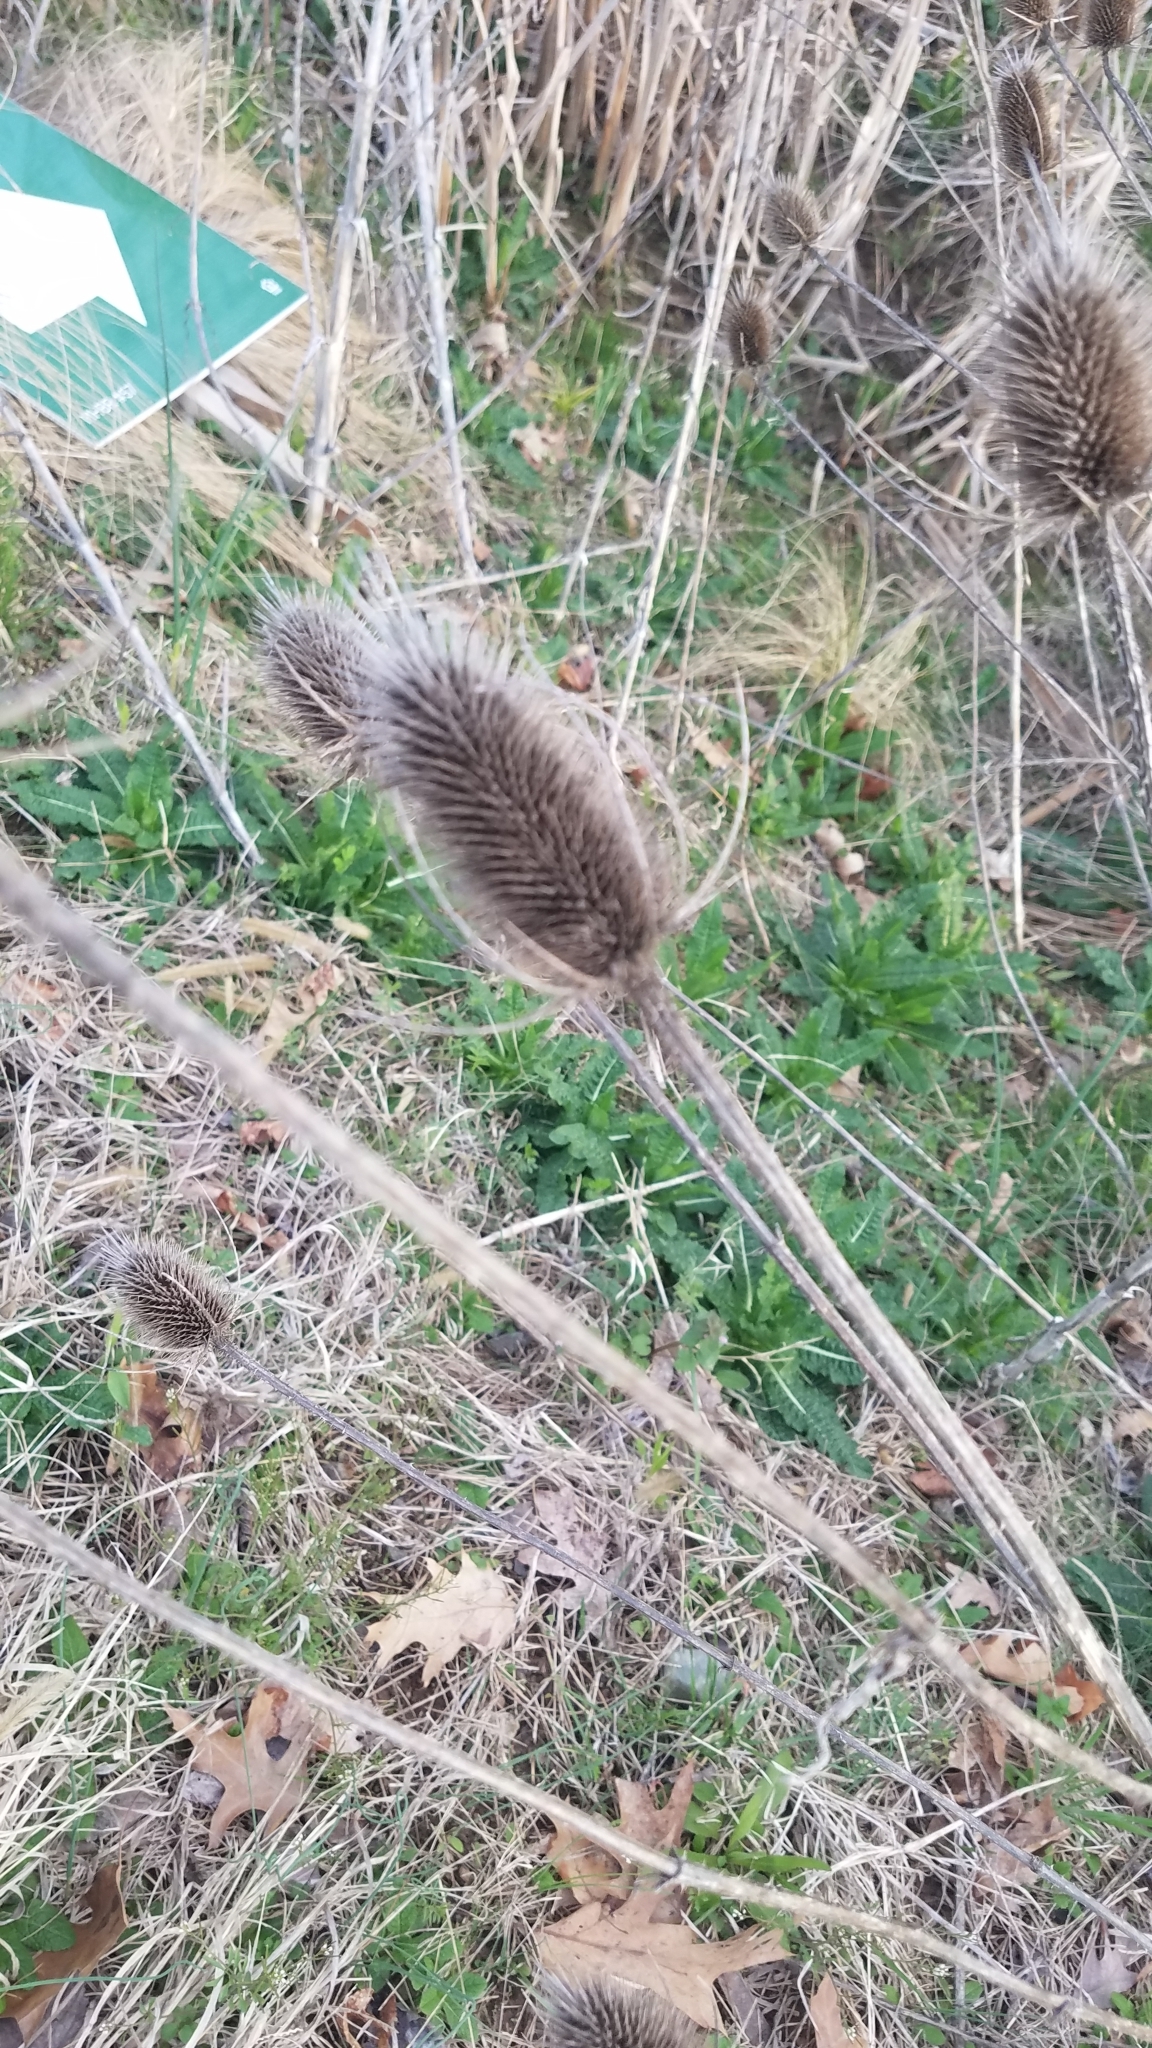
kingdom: Plantae
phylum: Tracheophyta
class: Magnoliopsida
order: Dipsacales
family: Caprifoliaceae
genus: Dipsacus
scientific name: Dipsacus fullonum
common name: Teasel
